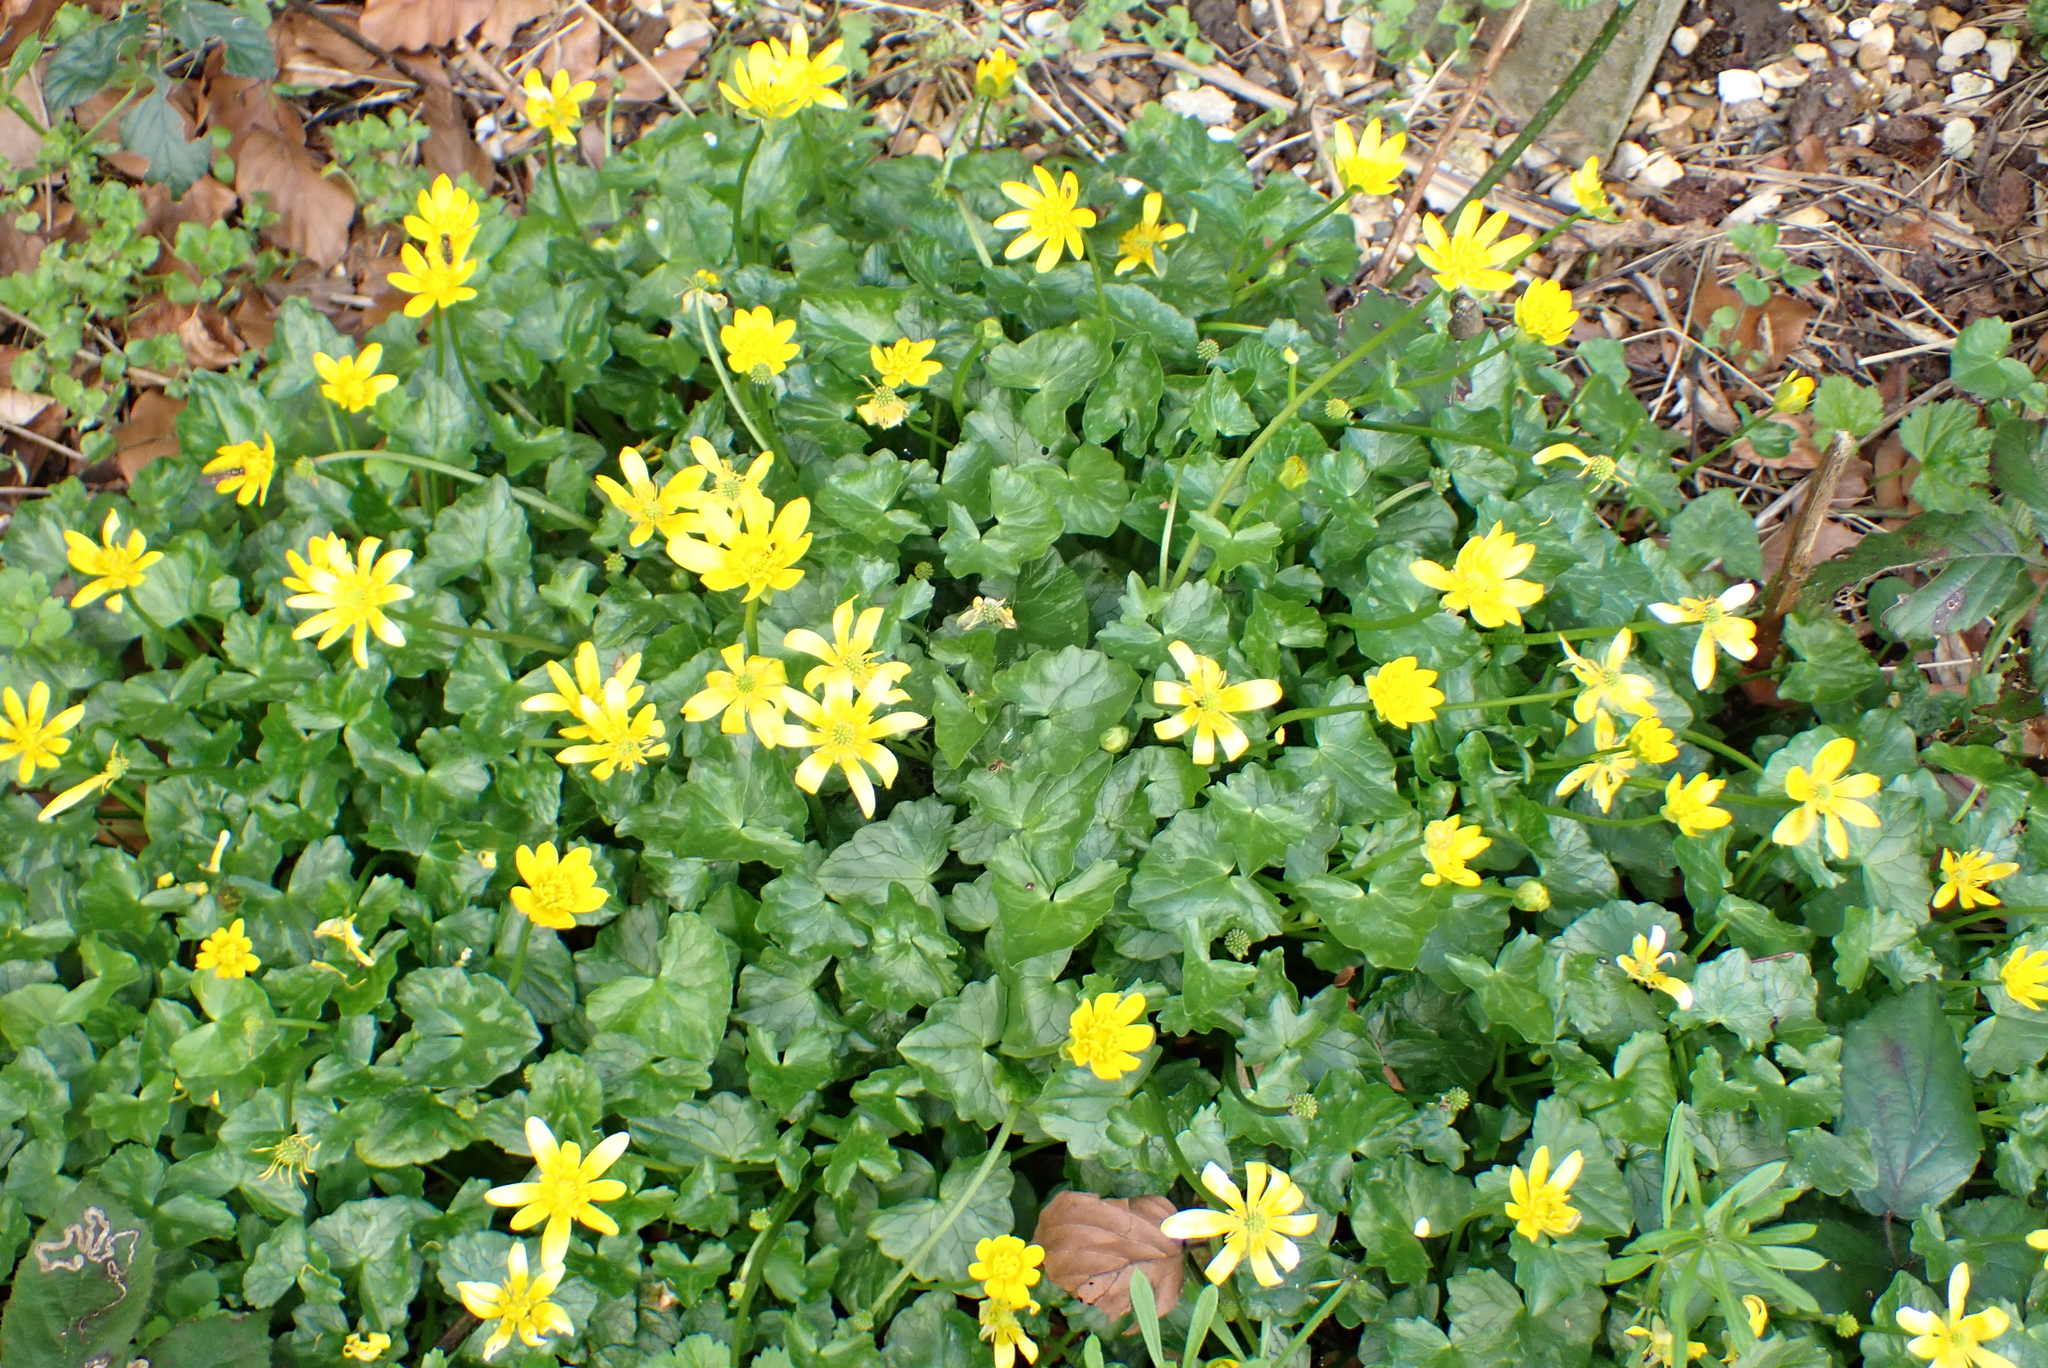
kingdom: Plantae
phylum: Tracheophyta
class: Magnoliopsida
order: Ranunculales
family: Ranunculaceae
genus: Ficaria
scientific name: Ficaria verna
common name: Lesser celandine
